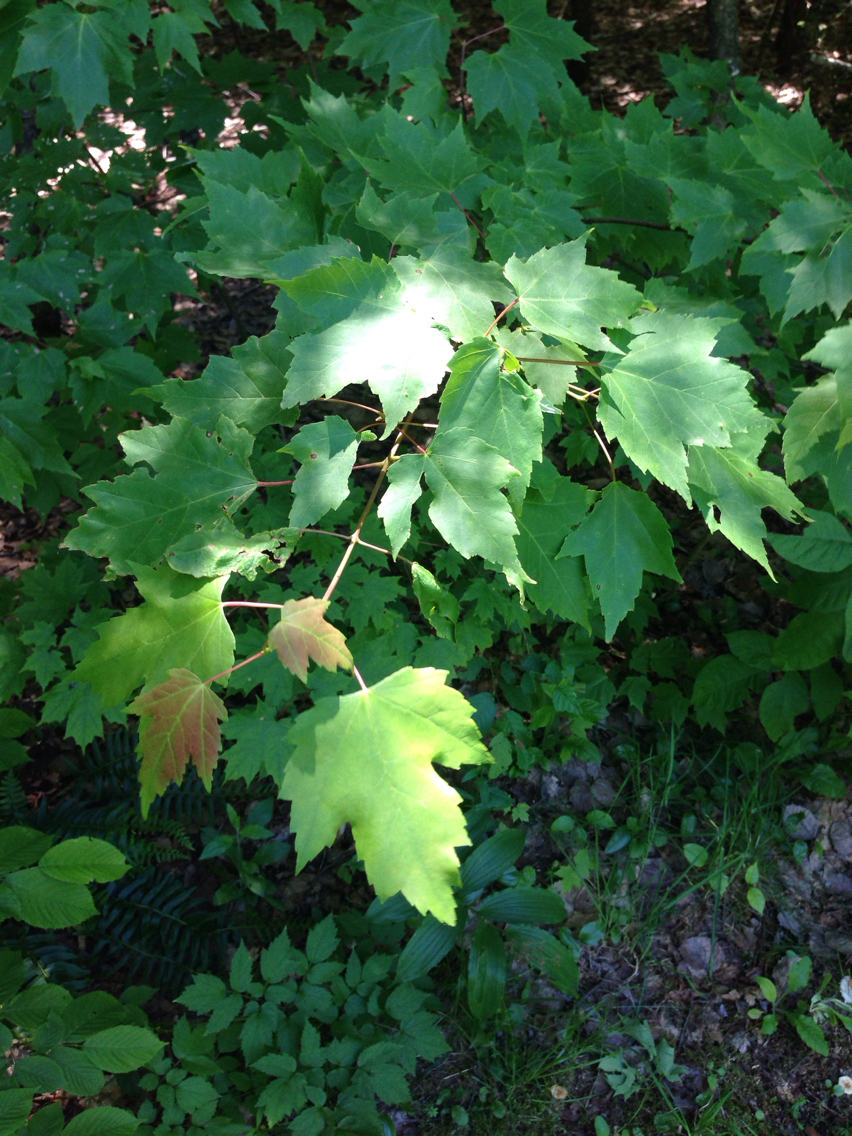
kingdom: Plantae
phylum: Tracheophyta
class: Magnoliopsida
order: Sapindales
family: Sapindaceae
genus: Acer
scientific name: Acer rubrum
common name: Red maple
